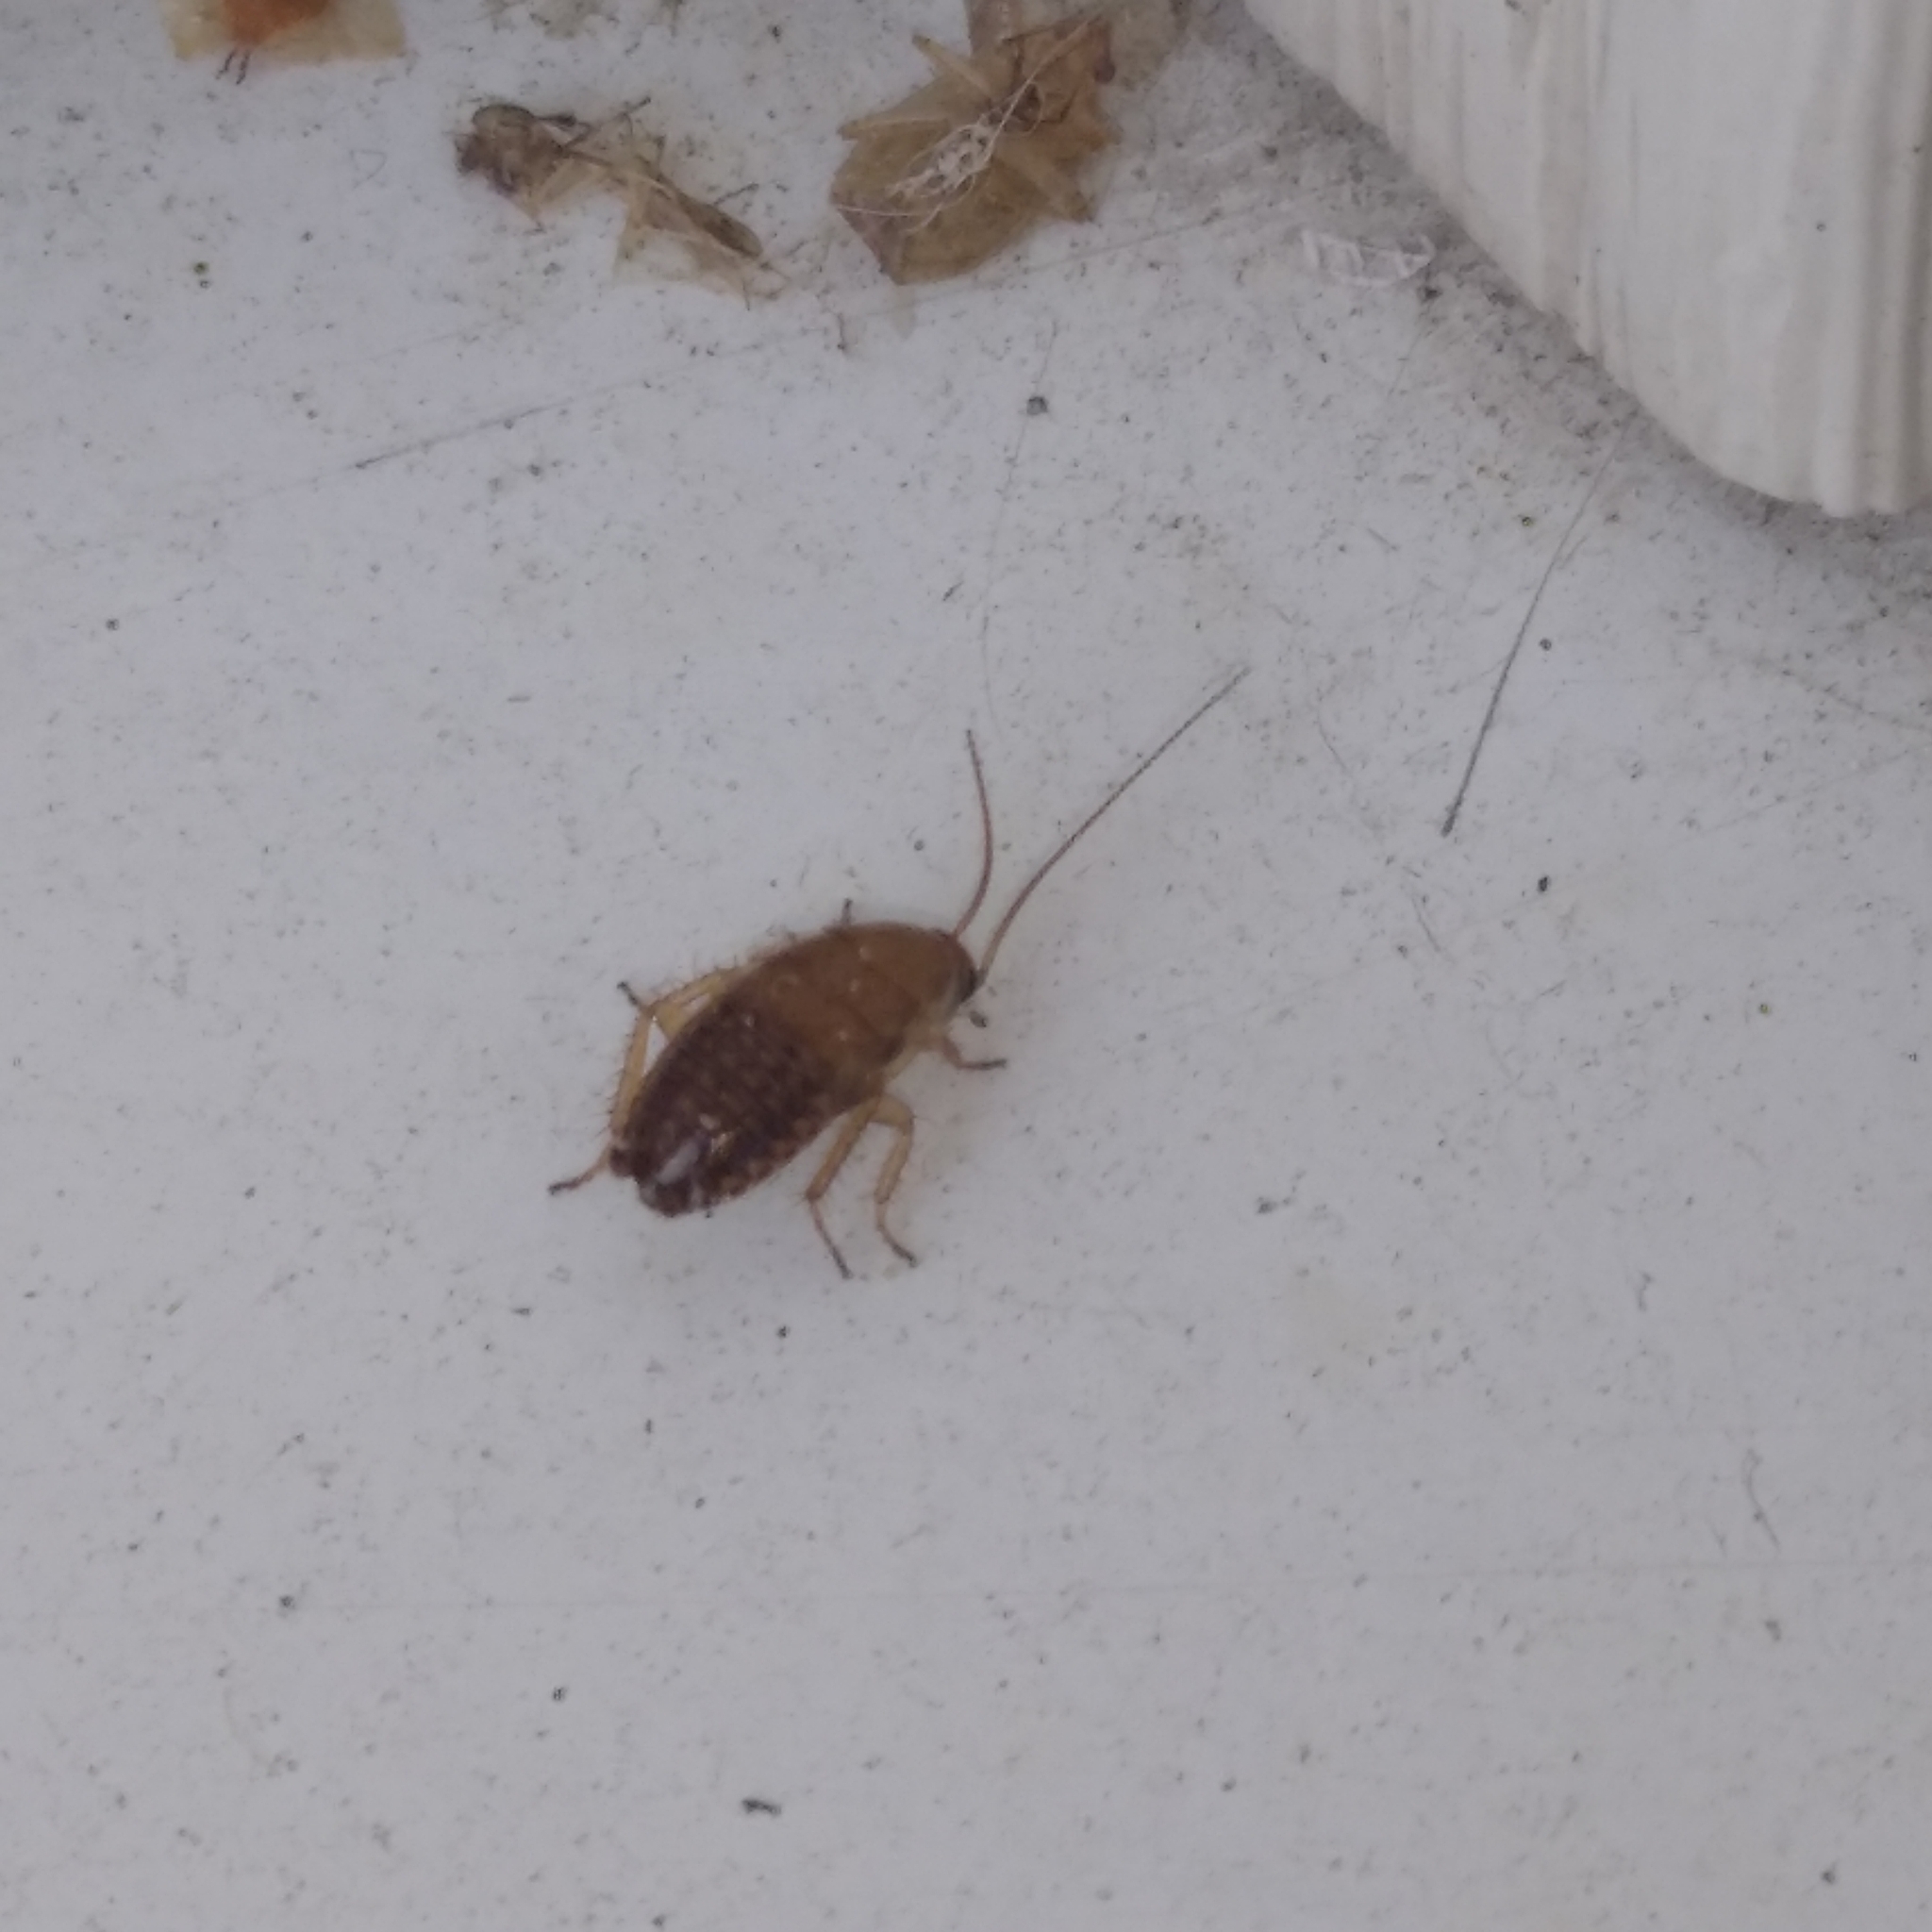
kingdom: Animalia
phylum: Arthropoda
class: Insecta
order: Blattodea
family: Ectobiidae
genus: Ectobius
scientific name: Ectobius lapponicus
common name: Dusky cockroach
